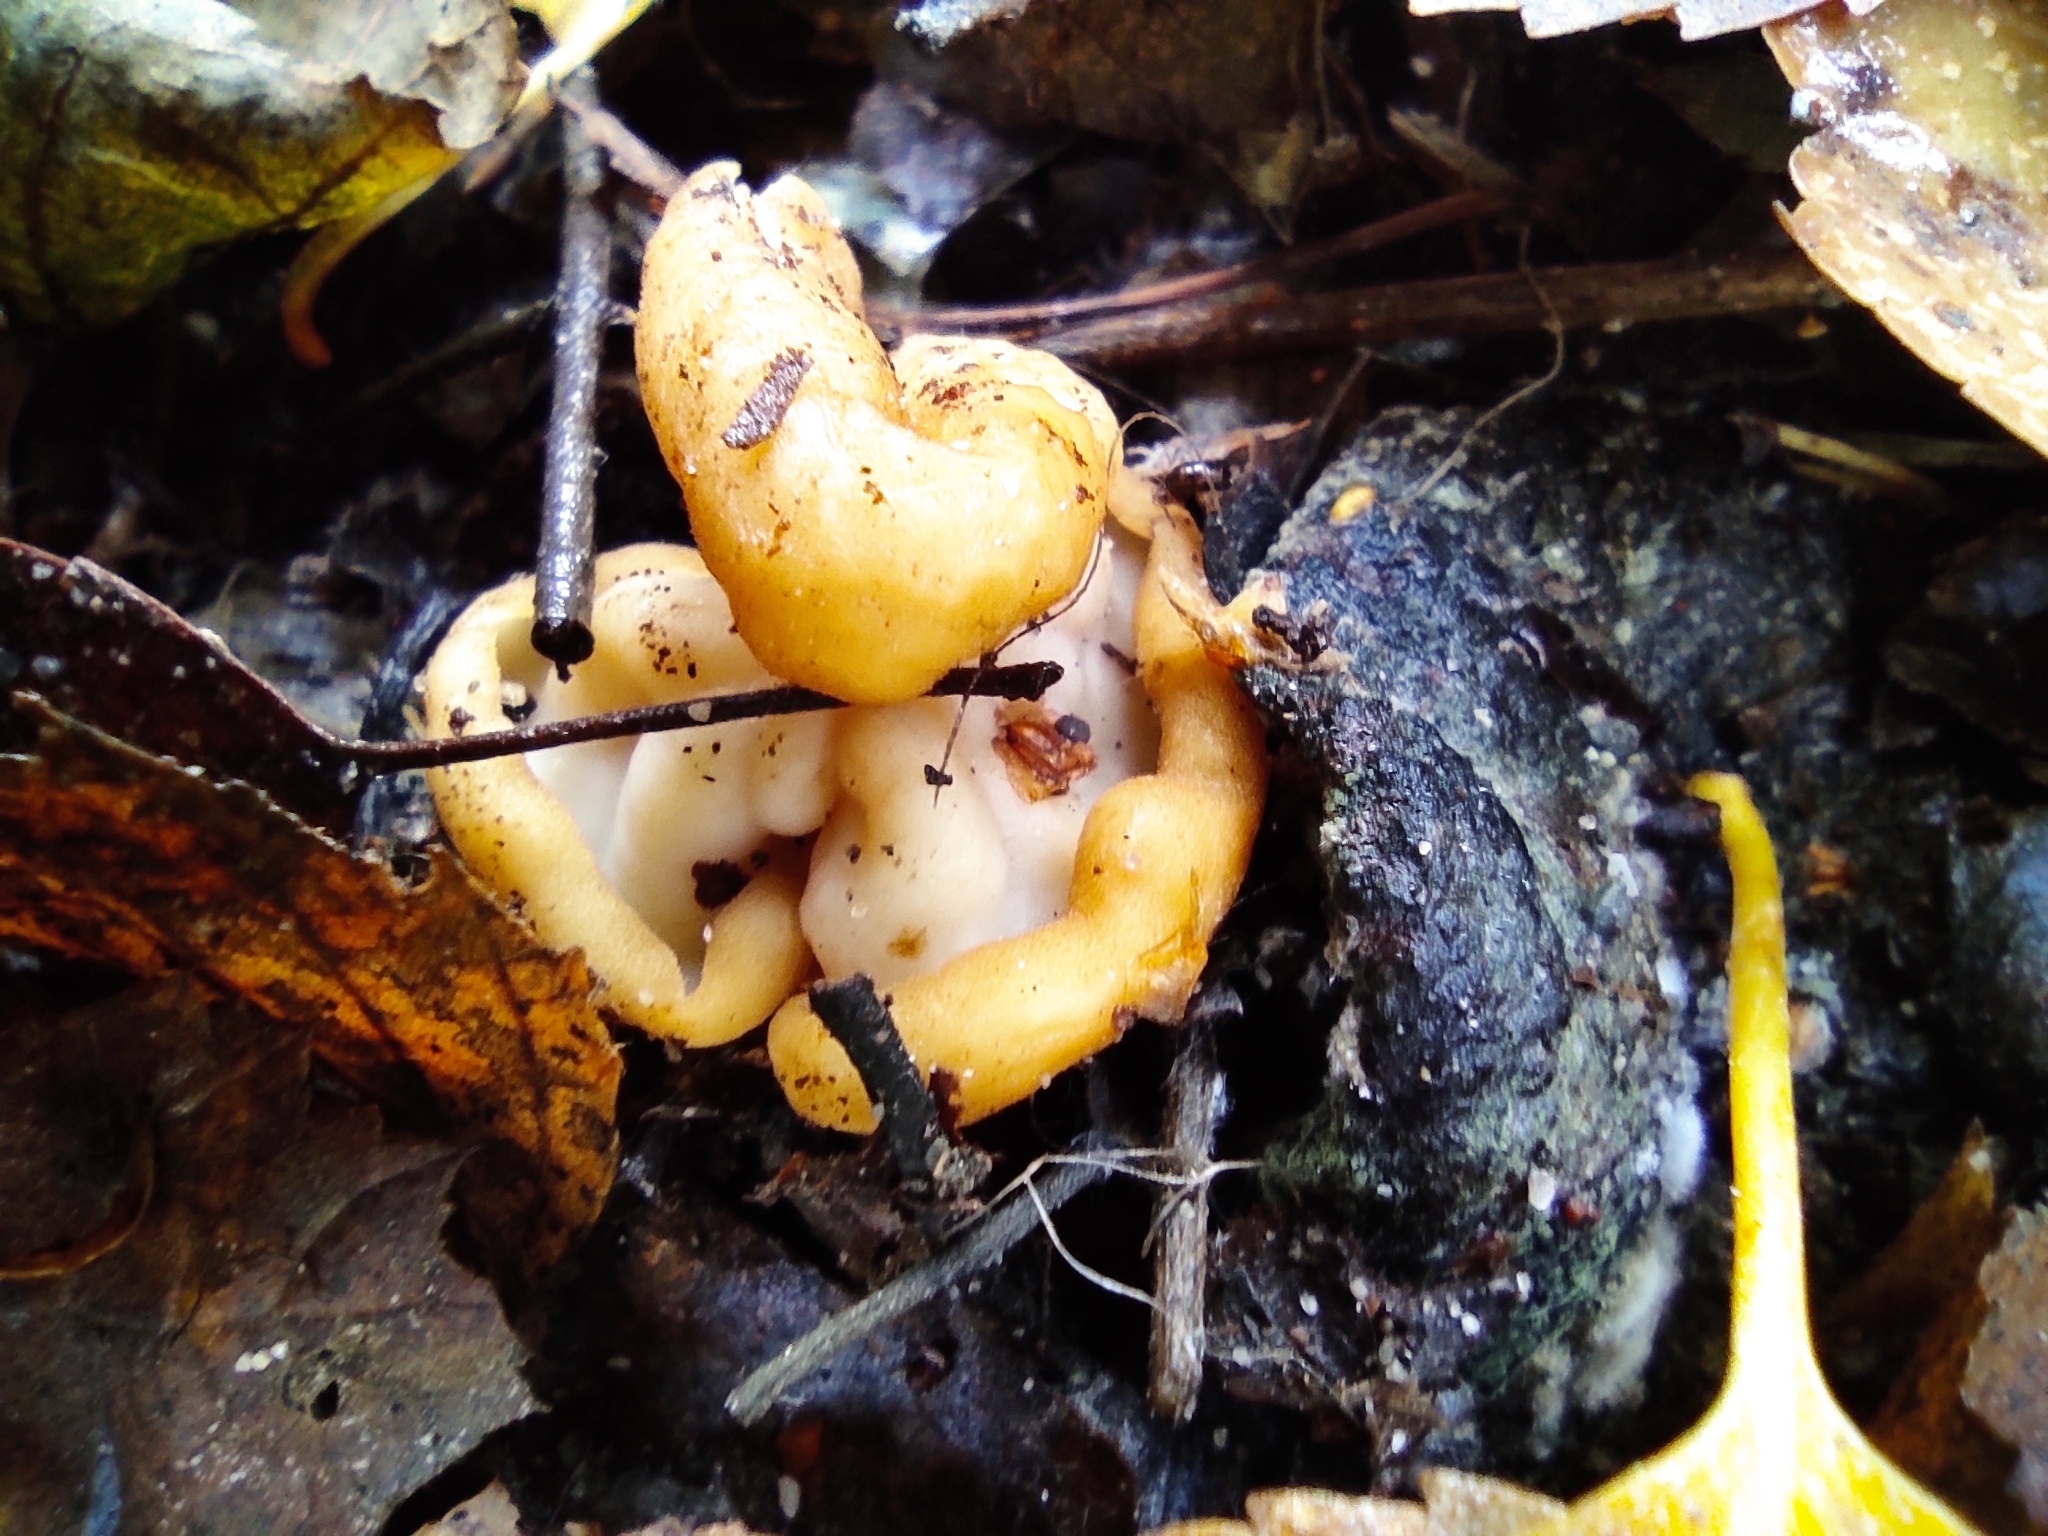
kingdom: Fungi
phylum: Ascomycota
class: Pezizomycetes
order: Pezizales
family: Helvellaceae
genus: Helvella
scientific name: Helvella crispa
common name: White saddle
